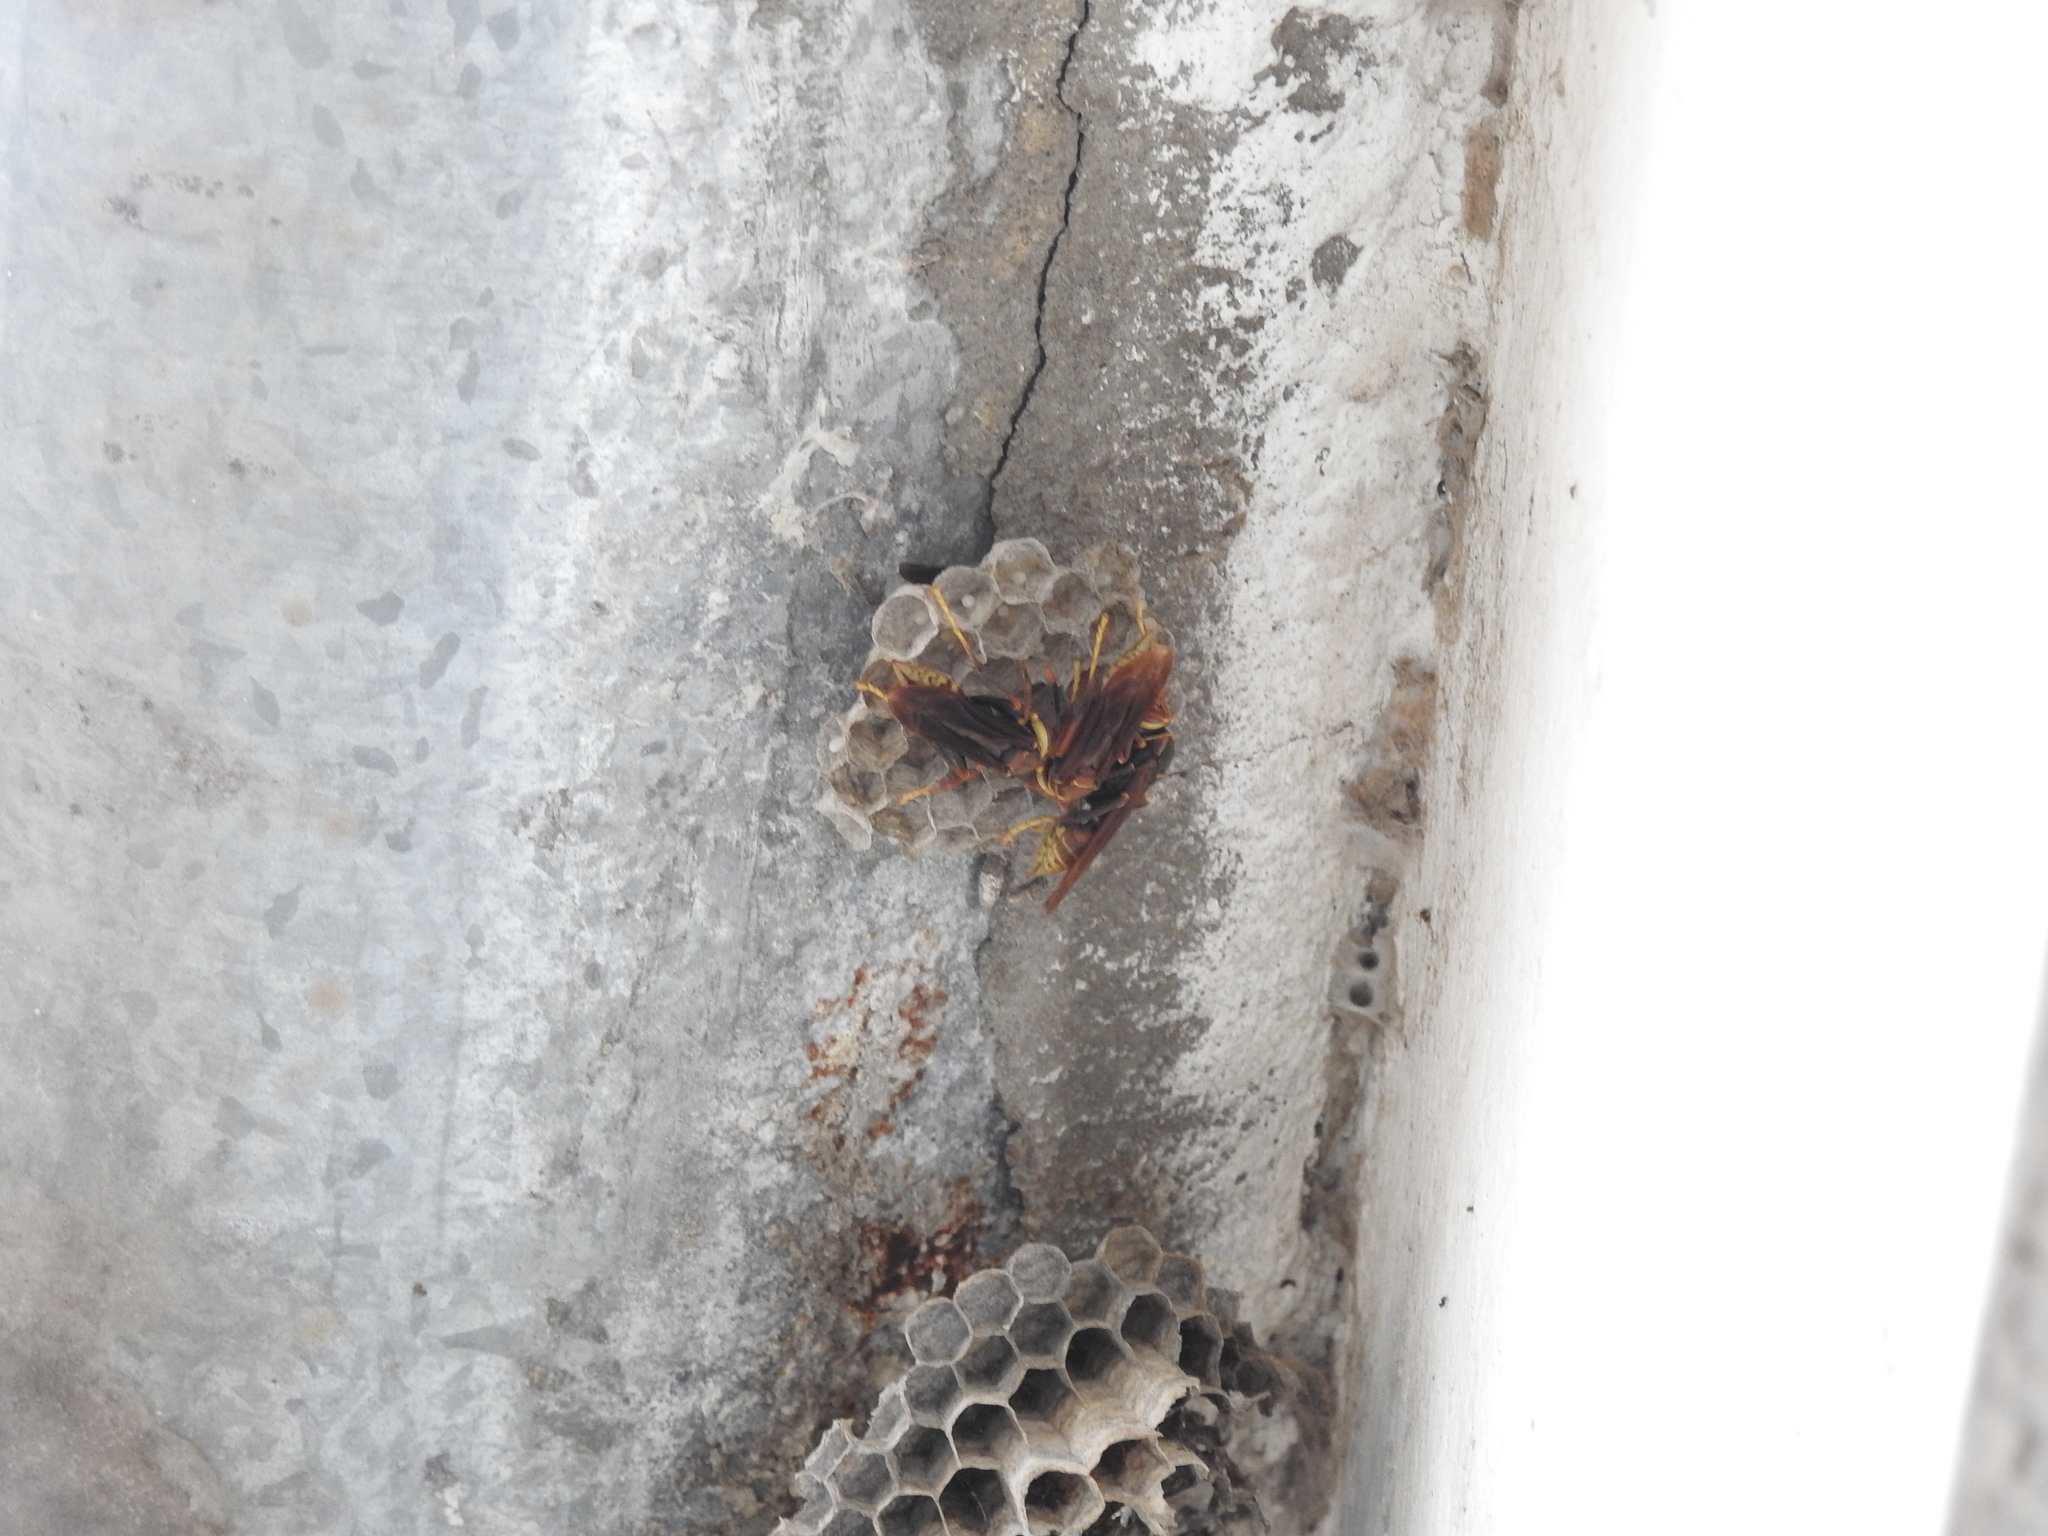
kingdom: Animalia
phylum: Arthropoda
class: Insecta
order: Hymenoptera
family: Eumenidae
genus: Polistes
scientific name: Polistes buyssoni
